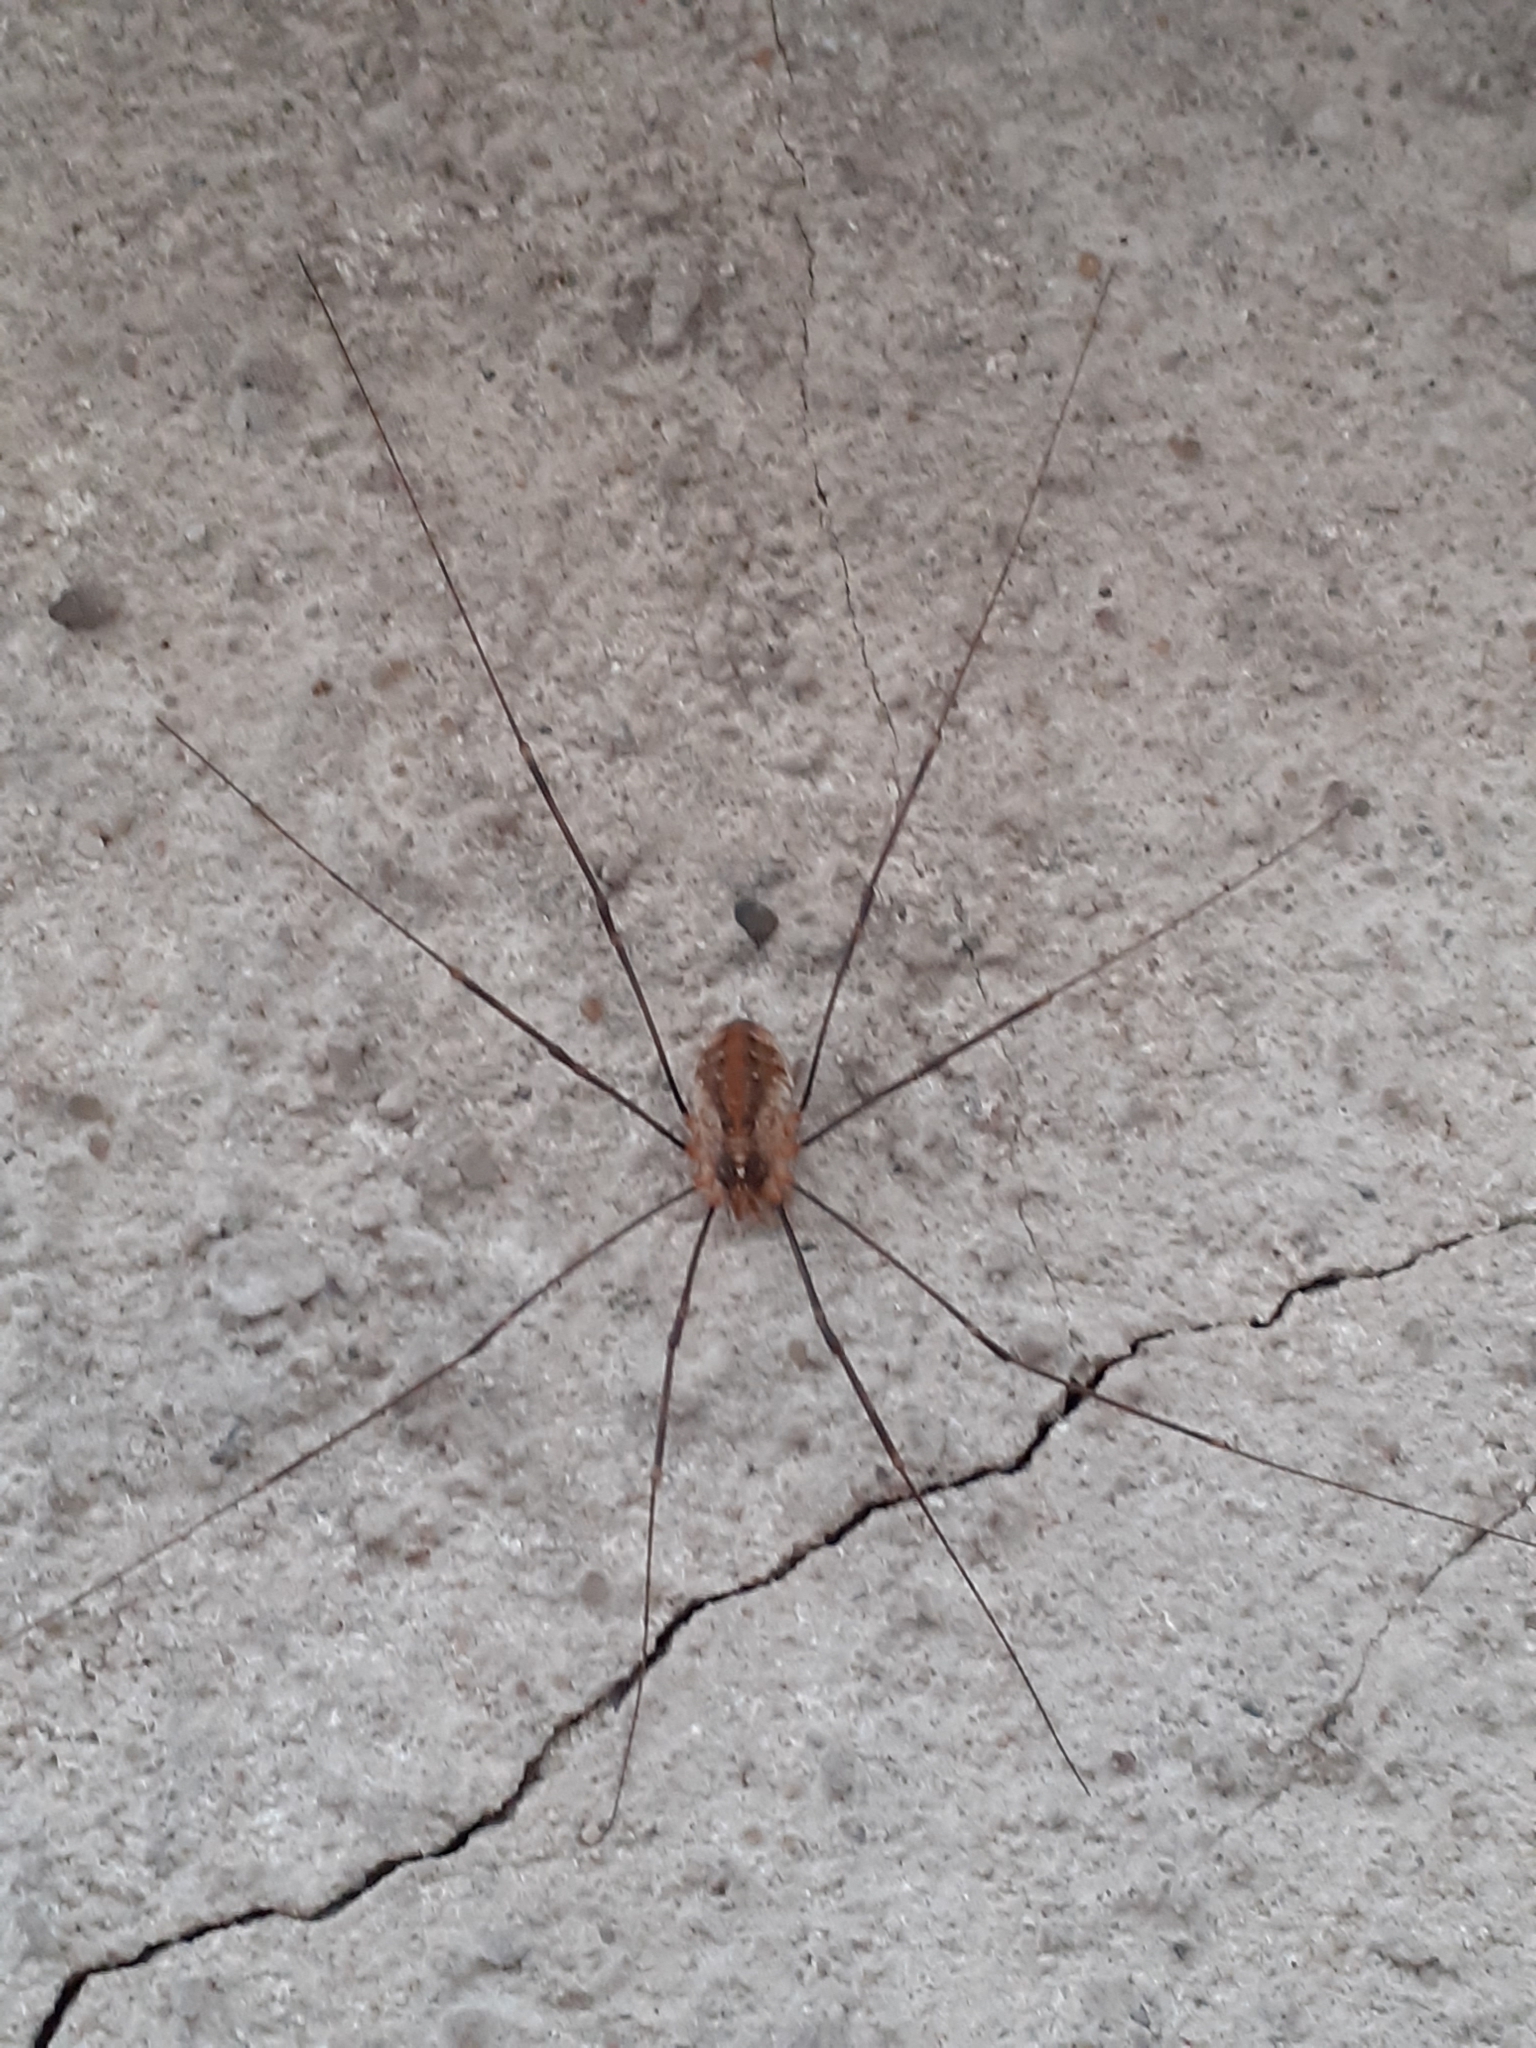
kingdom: Animalia
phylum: Arthropoda
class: Arachnida
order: Opiliones
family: Phalangiidae
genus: Opilio
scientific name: Opilio canestrinii
